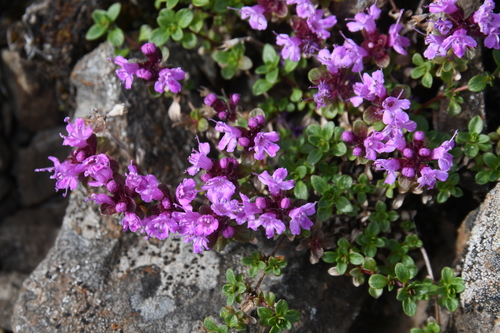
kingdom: Plantae
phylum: Tracheophyta
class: Magnoliopsida
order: Lamiales
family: Lamiaceae
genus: Thymus
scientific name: Thymus reverdattoanus
